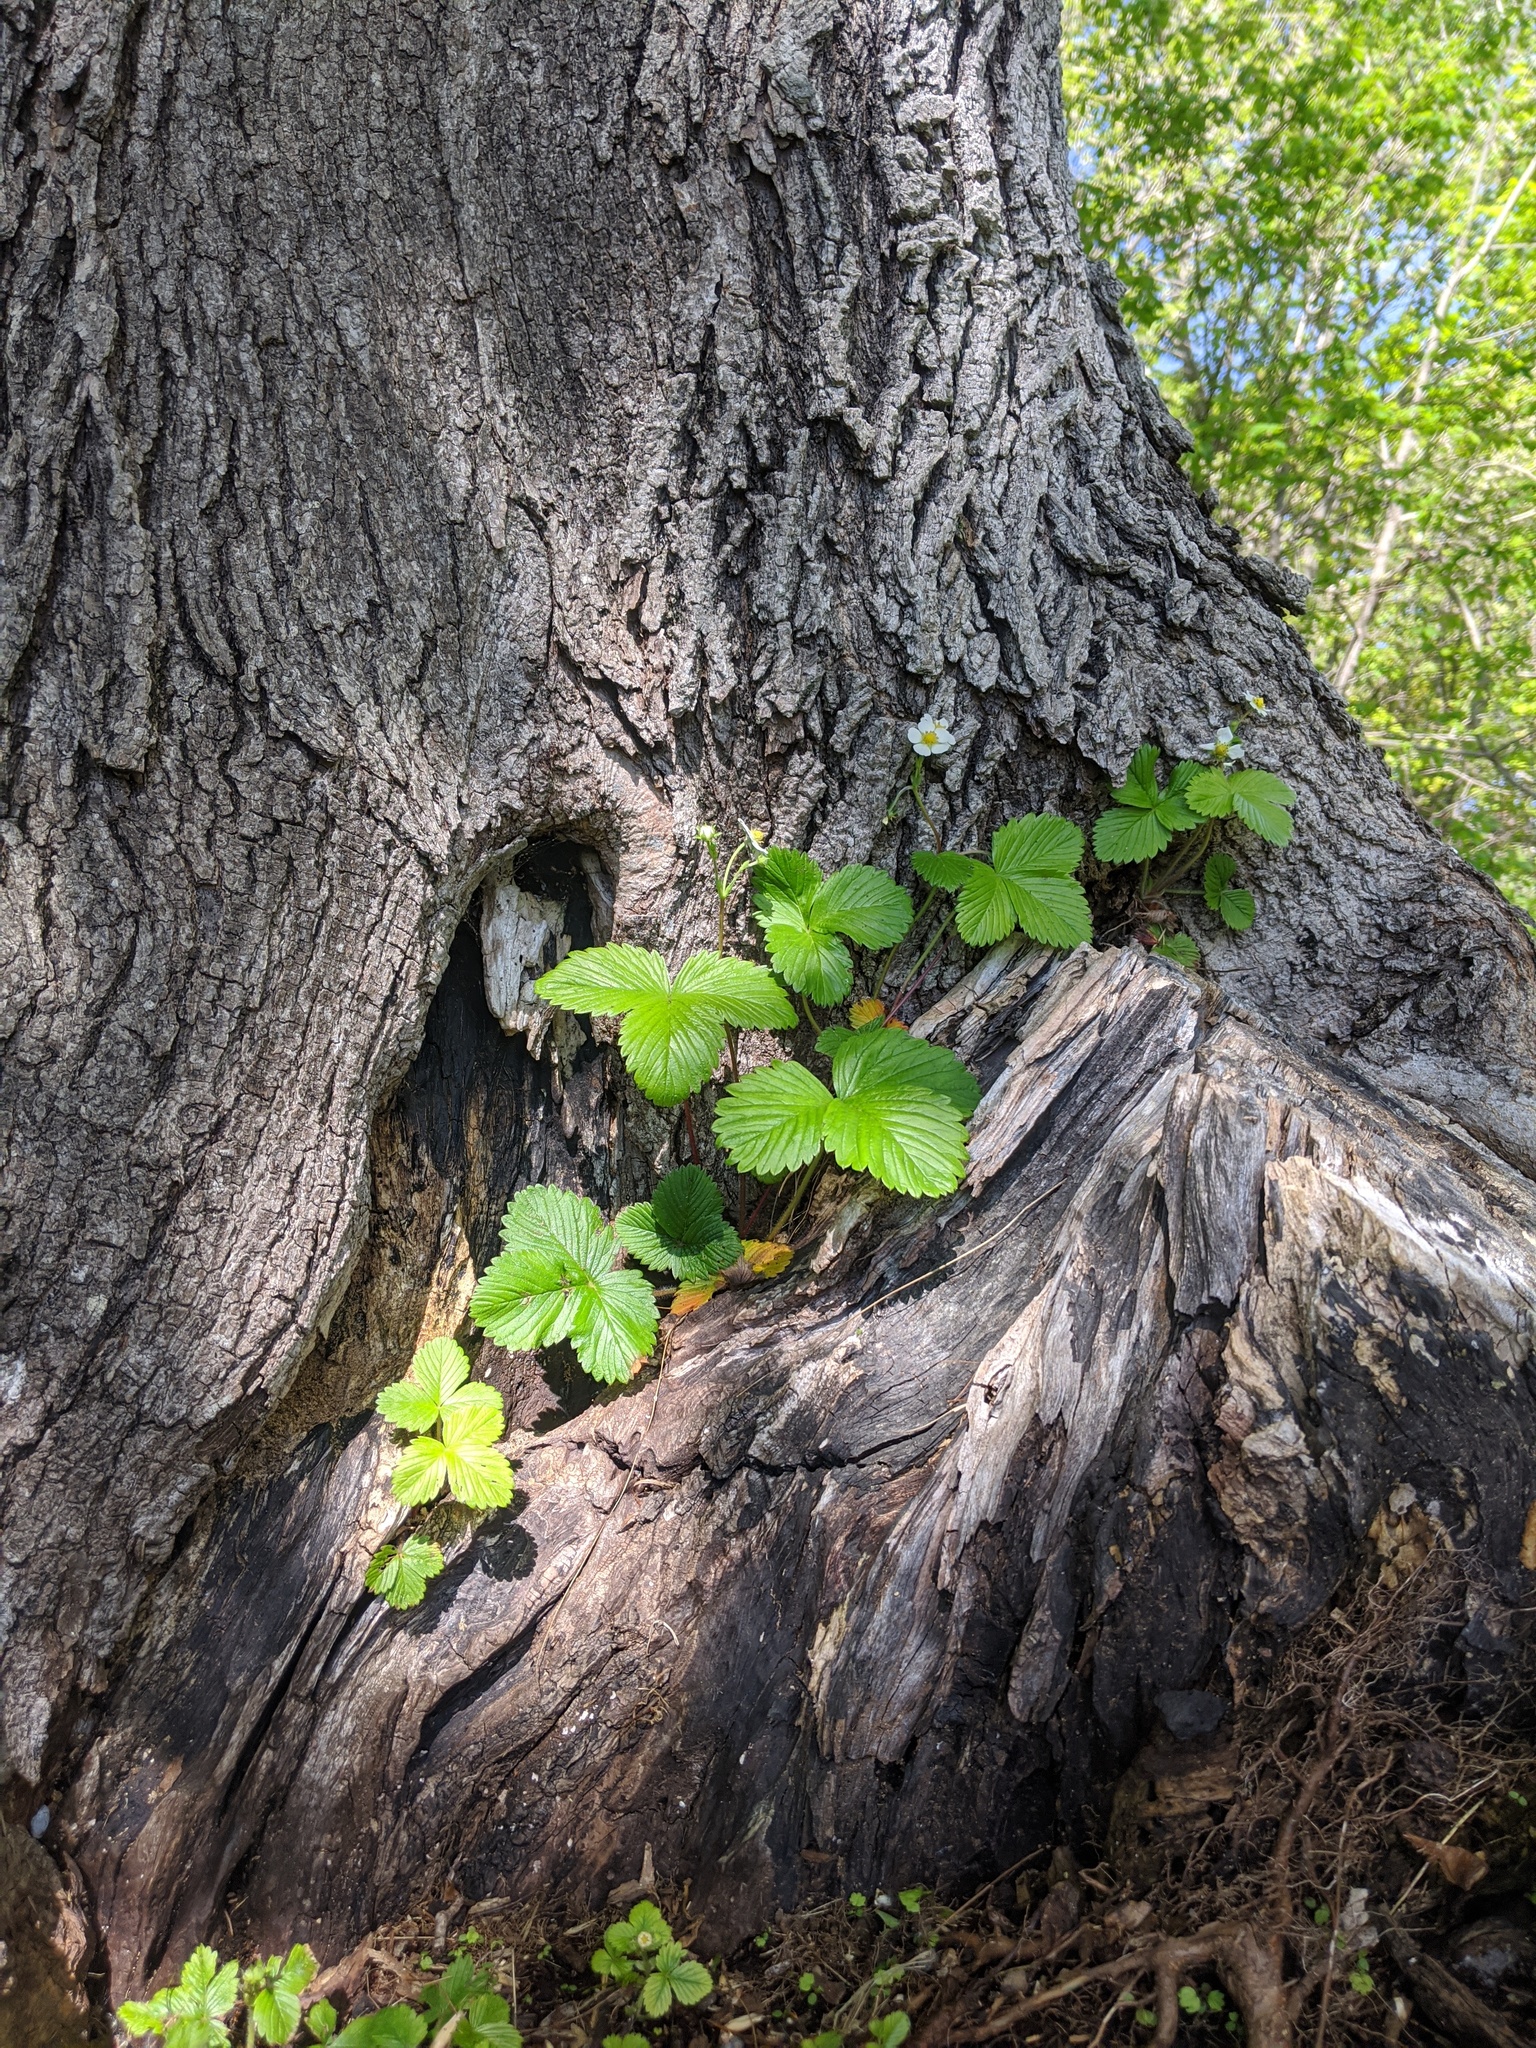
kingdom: Plantae
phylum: Tracheophyta
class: Magnoliopsida
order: Rosales
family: Rosaceae
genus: Fragaria
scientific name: Fragaria vesca
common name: Wild strawberry
